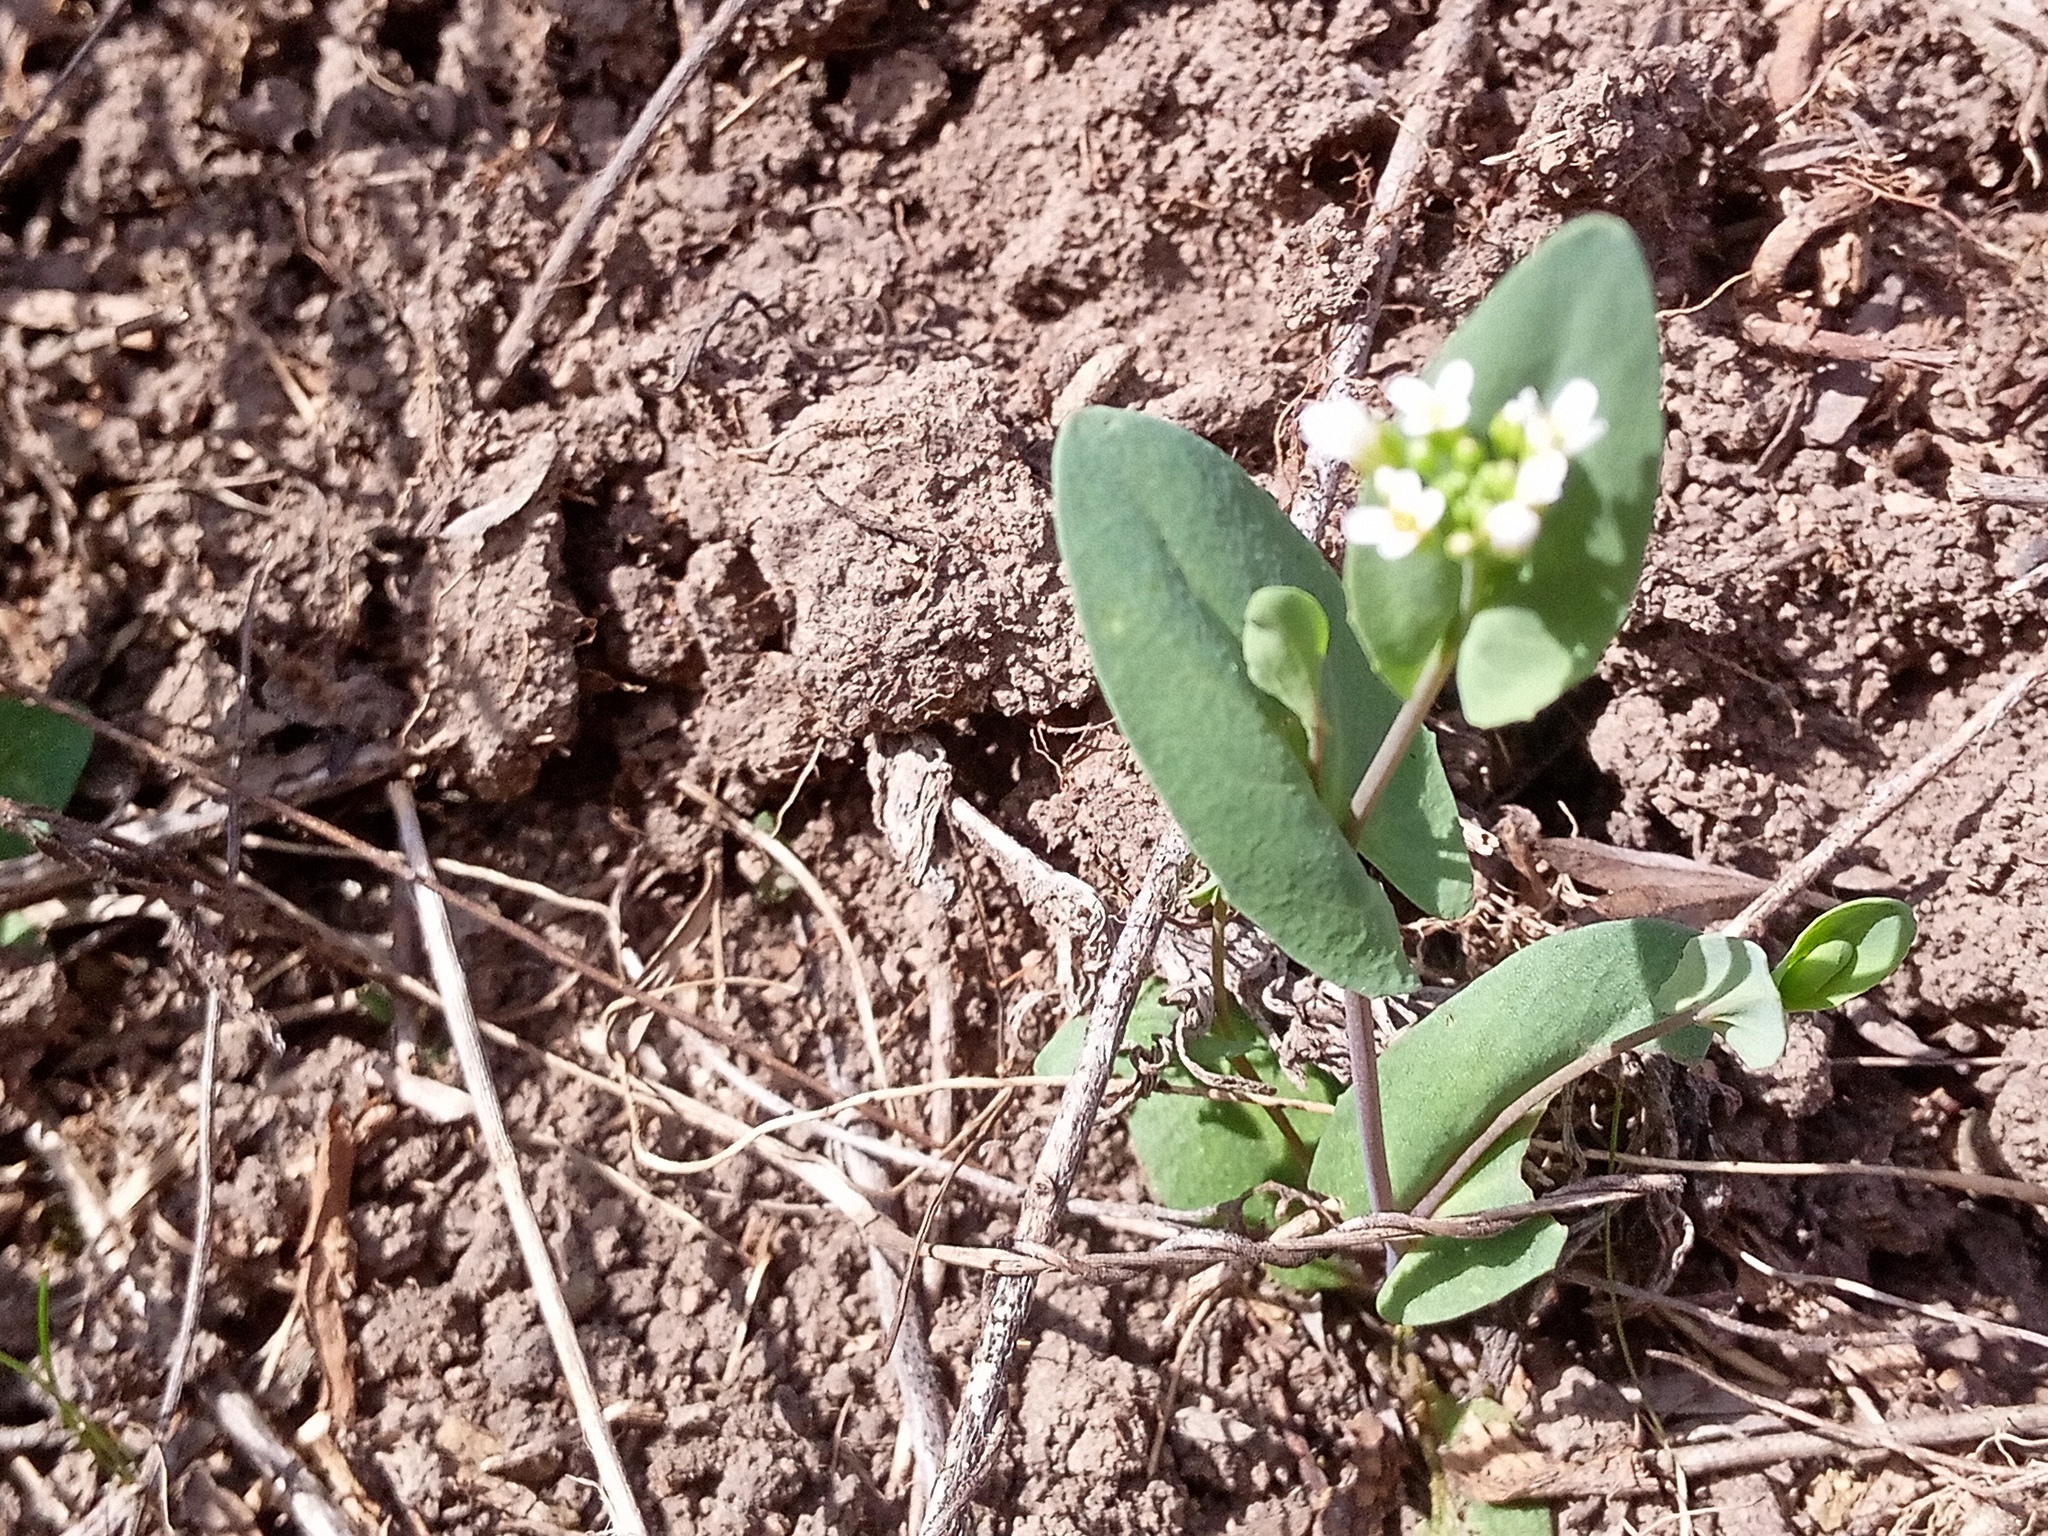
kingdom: Plantae
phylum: Tracheophyta
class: Magnoliopsida
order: Brassicales
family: Brassicaceae
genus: Noccaea
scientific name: Noccaea perfoliata
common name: Perfoliate pennycress
